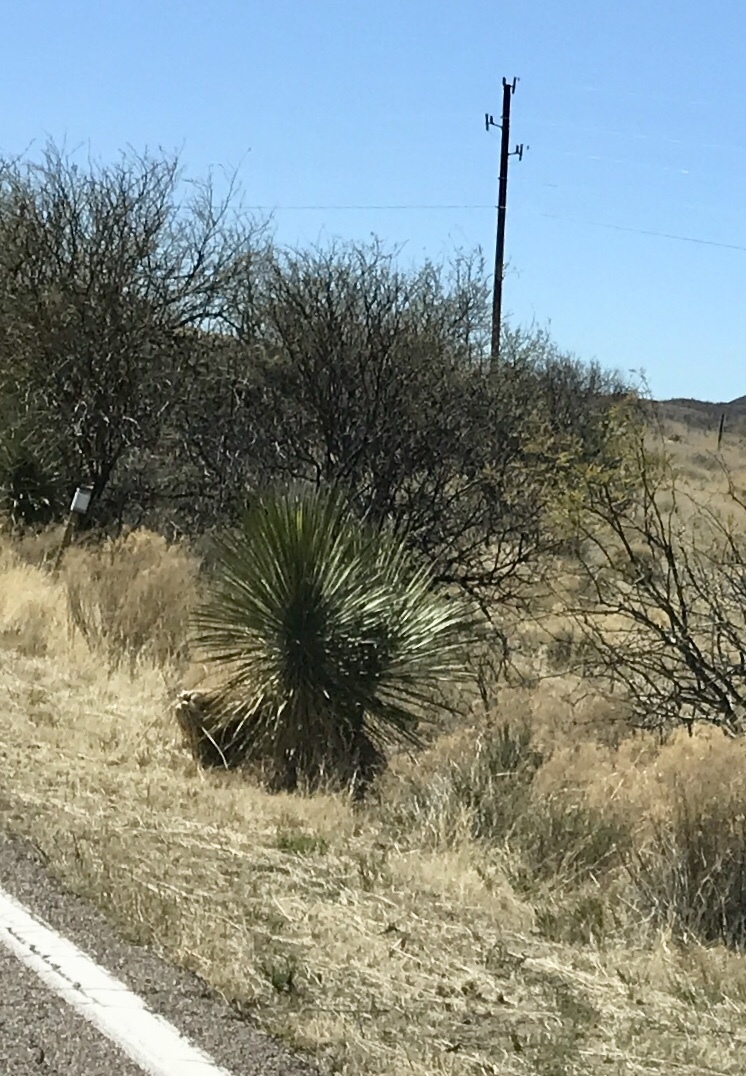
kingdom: Plantae
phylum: Tracheophyta
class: Liliopsida
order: Asparagales
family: Asparagaceae
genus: Yucca
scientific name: Yucca elata
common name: Palmella
